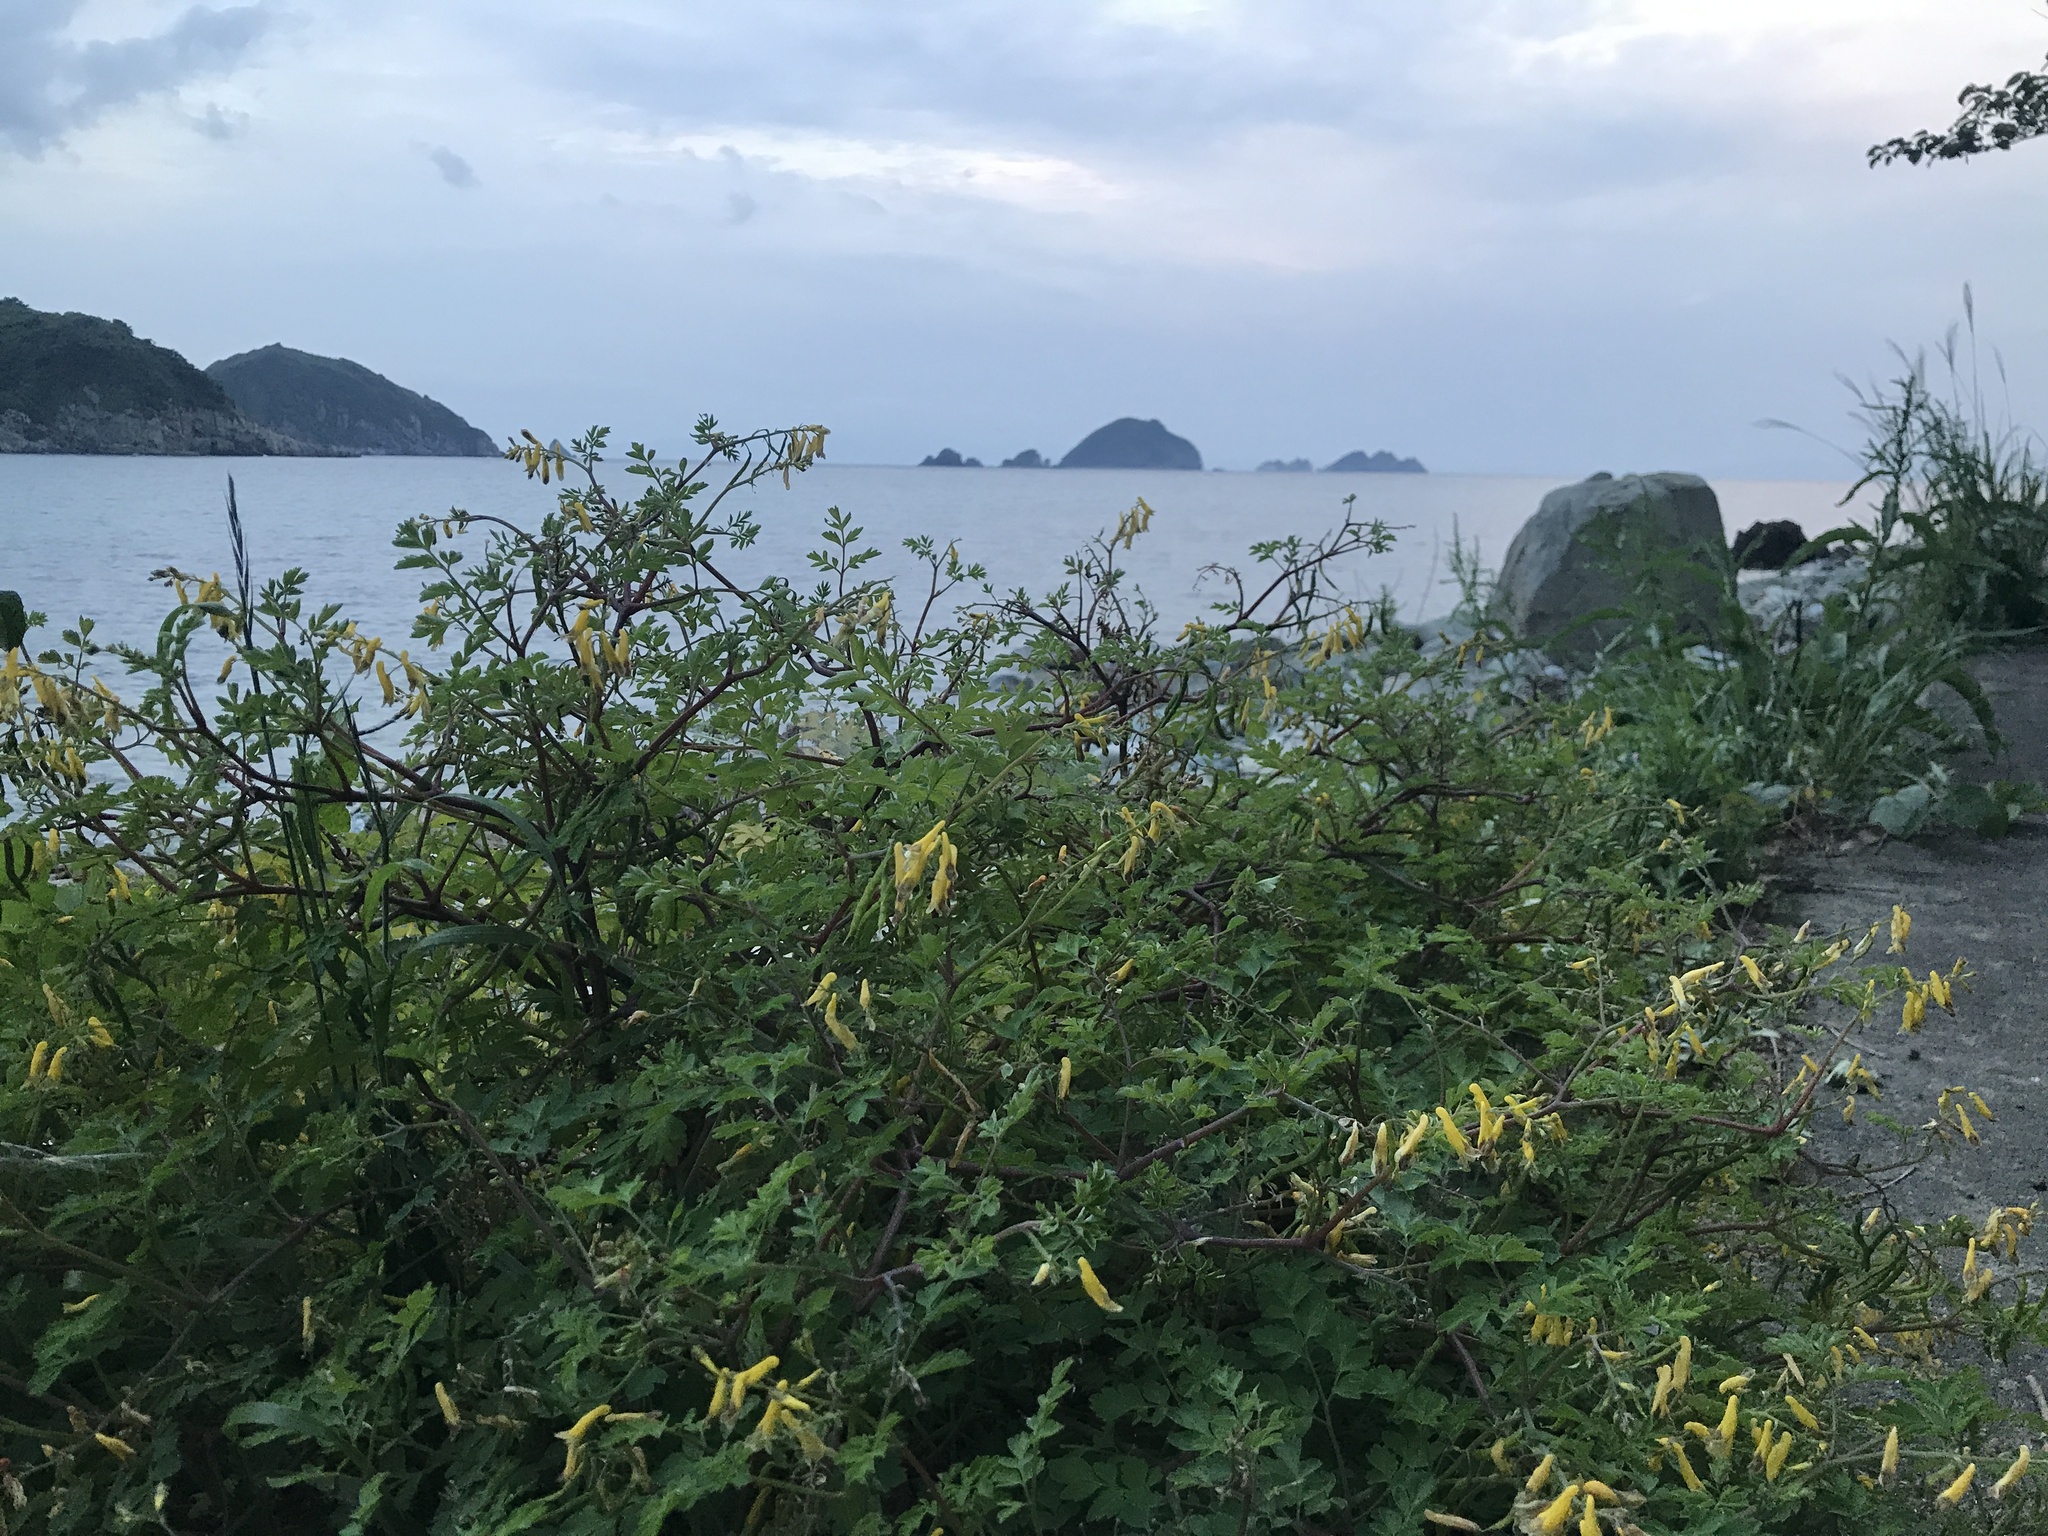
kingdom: Plantae
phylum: Tracheophyta
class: Magnoliopsida
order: Ranunculales
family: Papaveraceae
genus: Corydalis
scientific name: Corydalis heterocarpa
